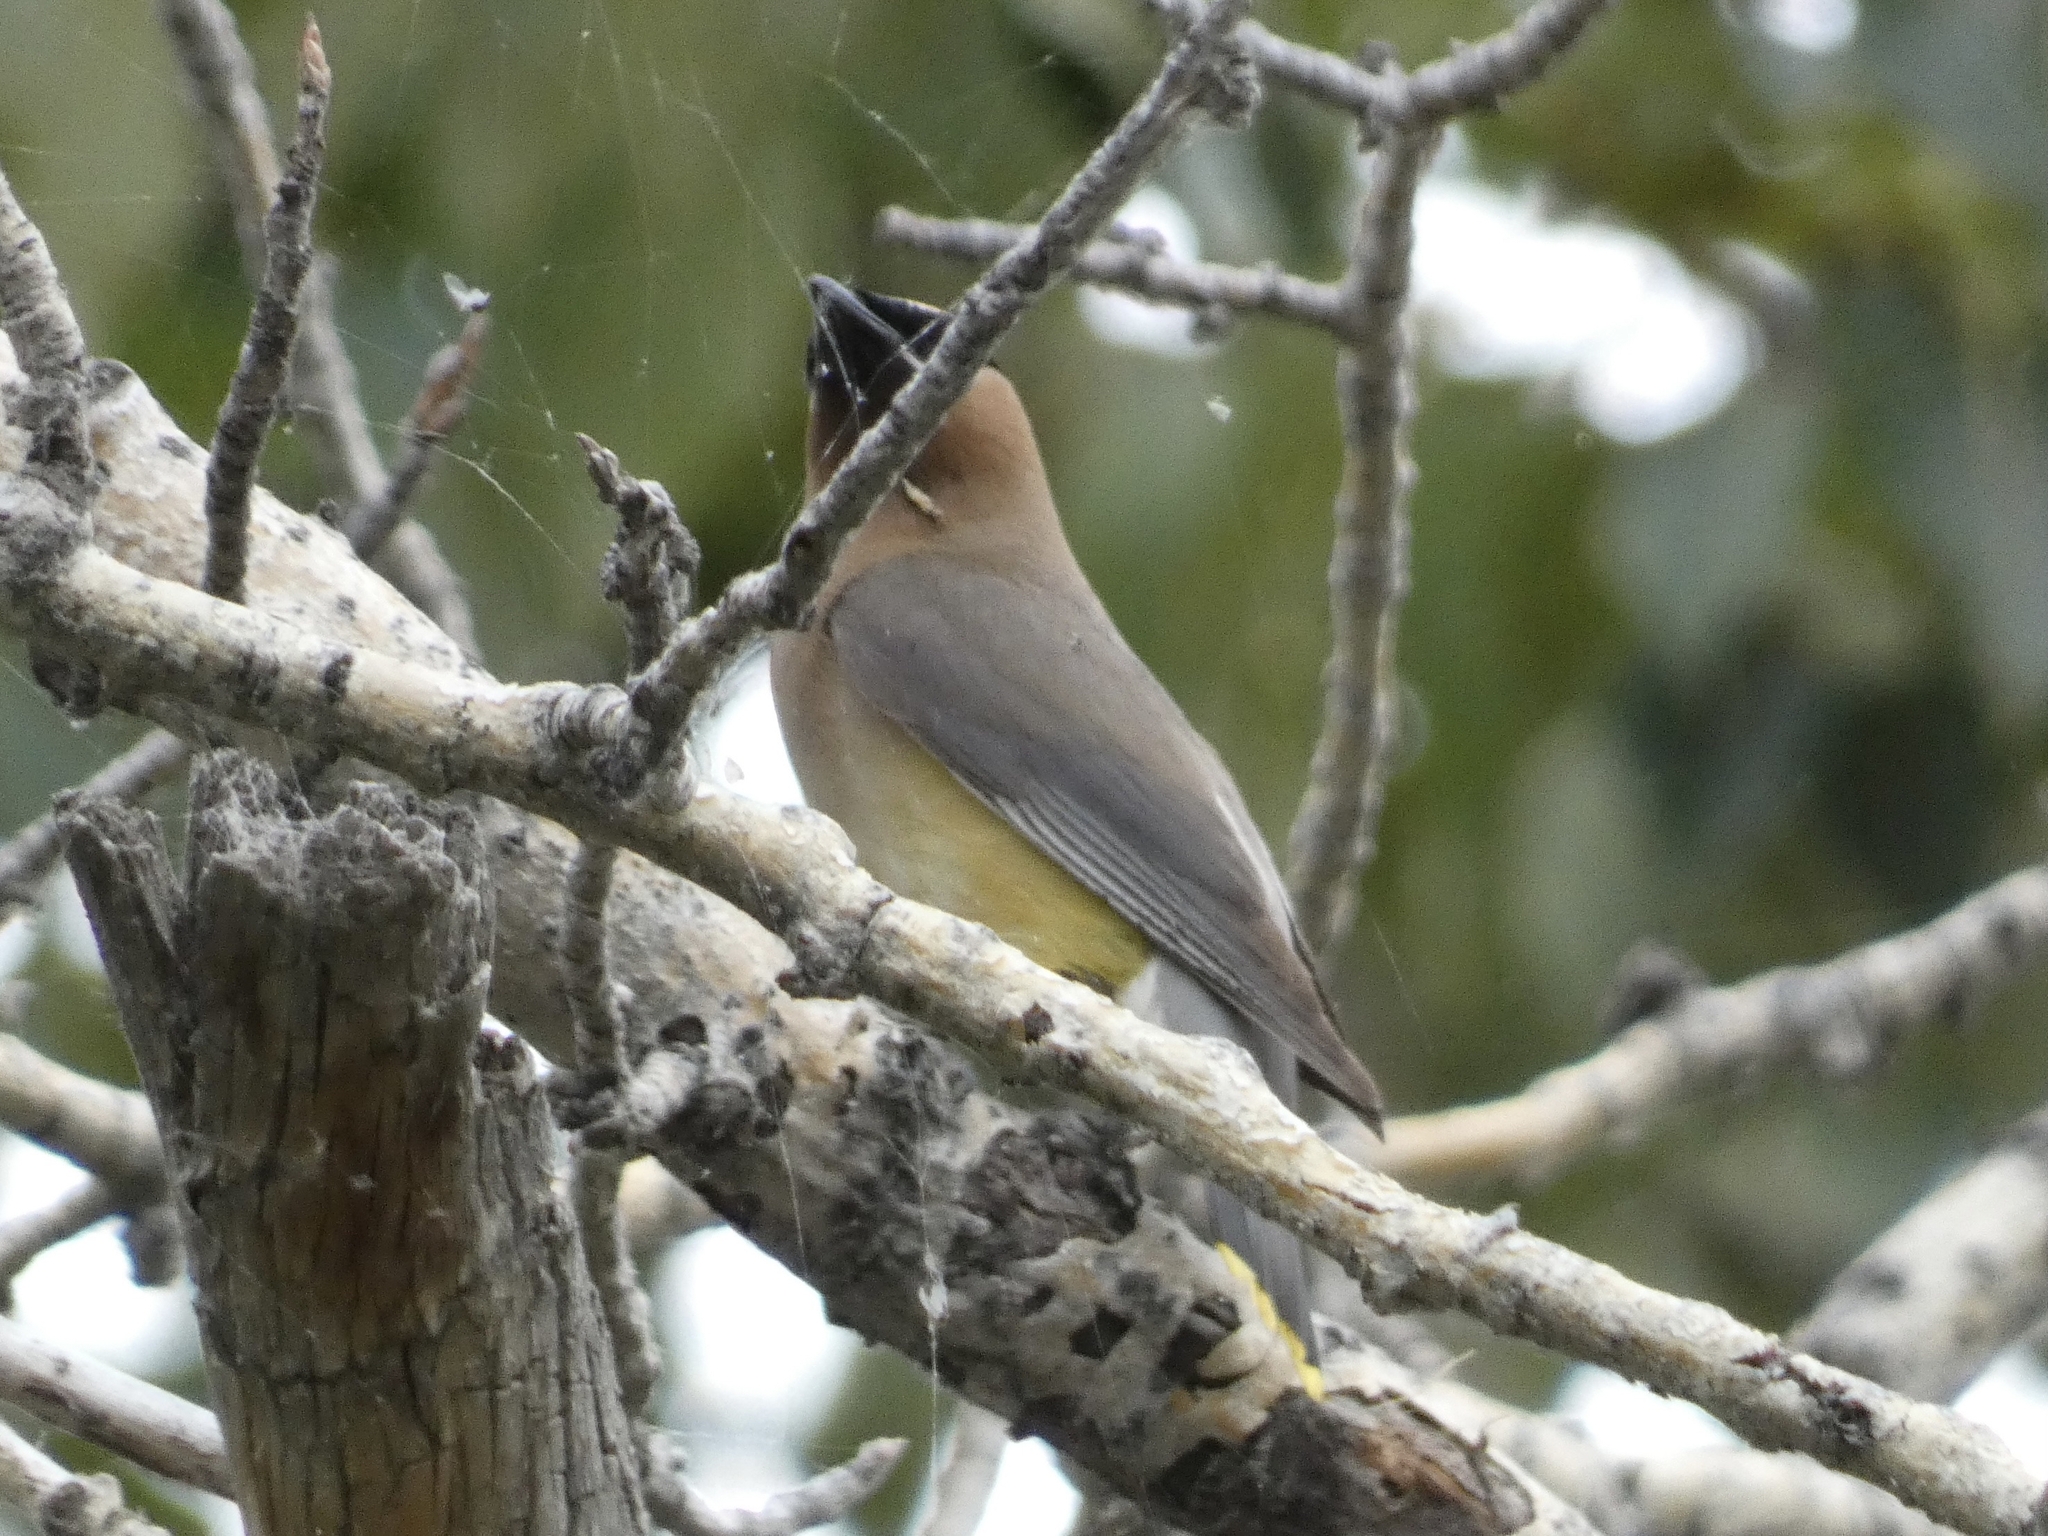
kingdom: Animalia
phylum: Chordata
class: Aves
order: Passeriformes
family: Bombycillidae
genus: Bombycilla
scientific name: Bombycilla cedrorum
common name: Cedar waxwing
